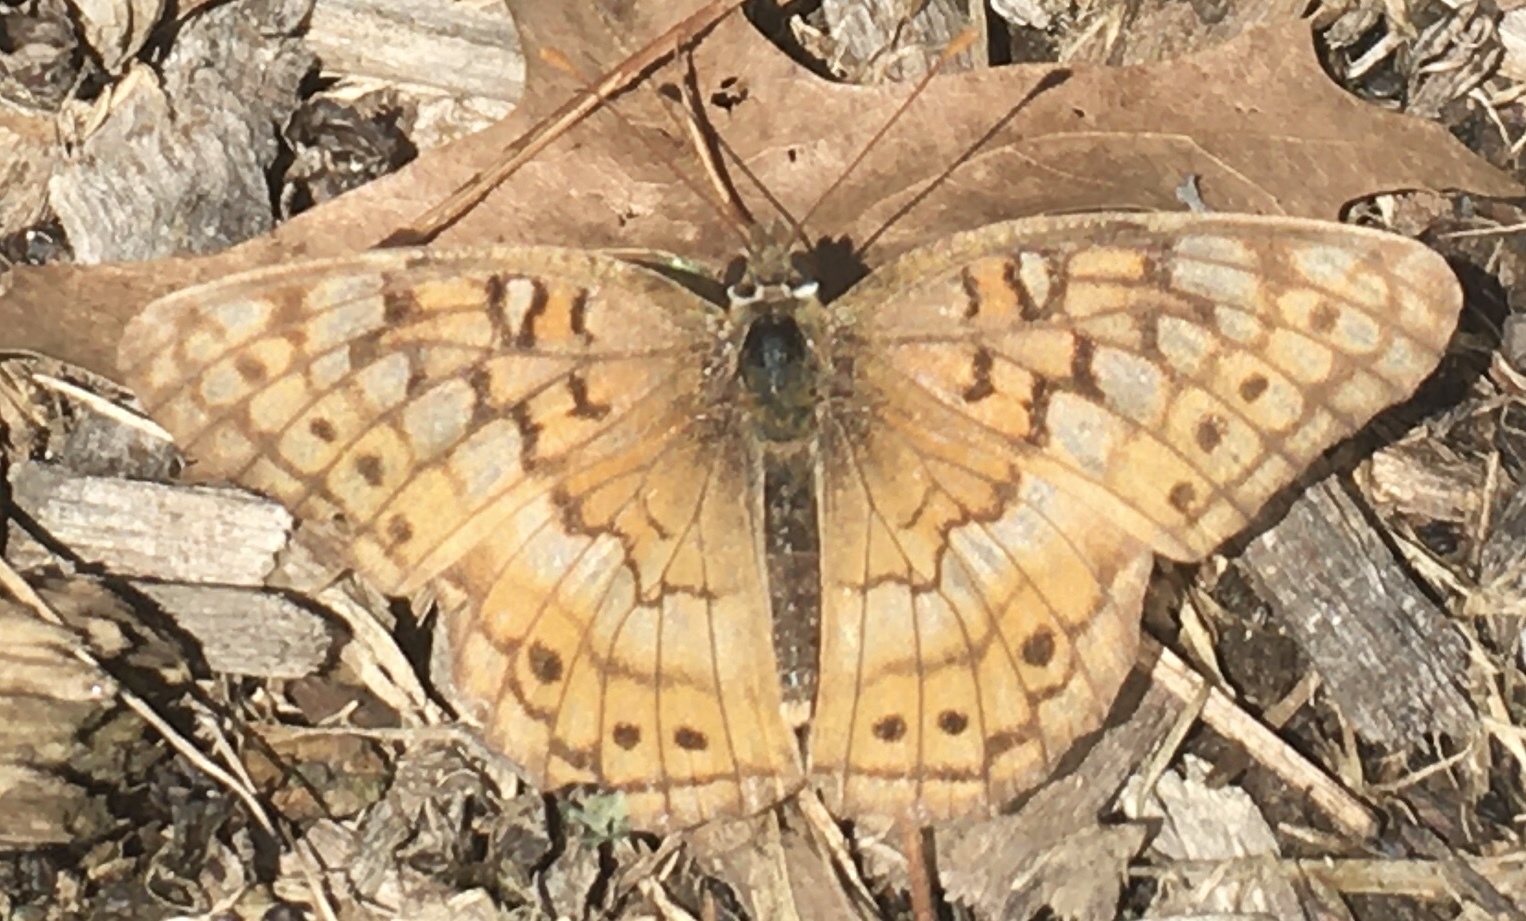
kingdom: Animalia
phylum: Arthropoda
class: Insecta
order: Lepidoptera
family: Nymphalidae
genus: Euptoieta
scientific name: Euptoieta claudia
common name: Variegated fritillary
